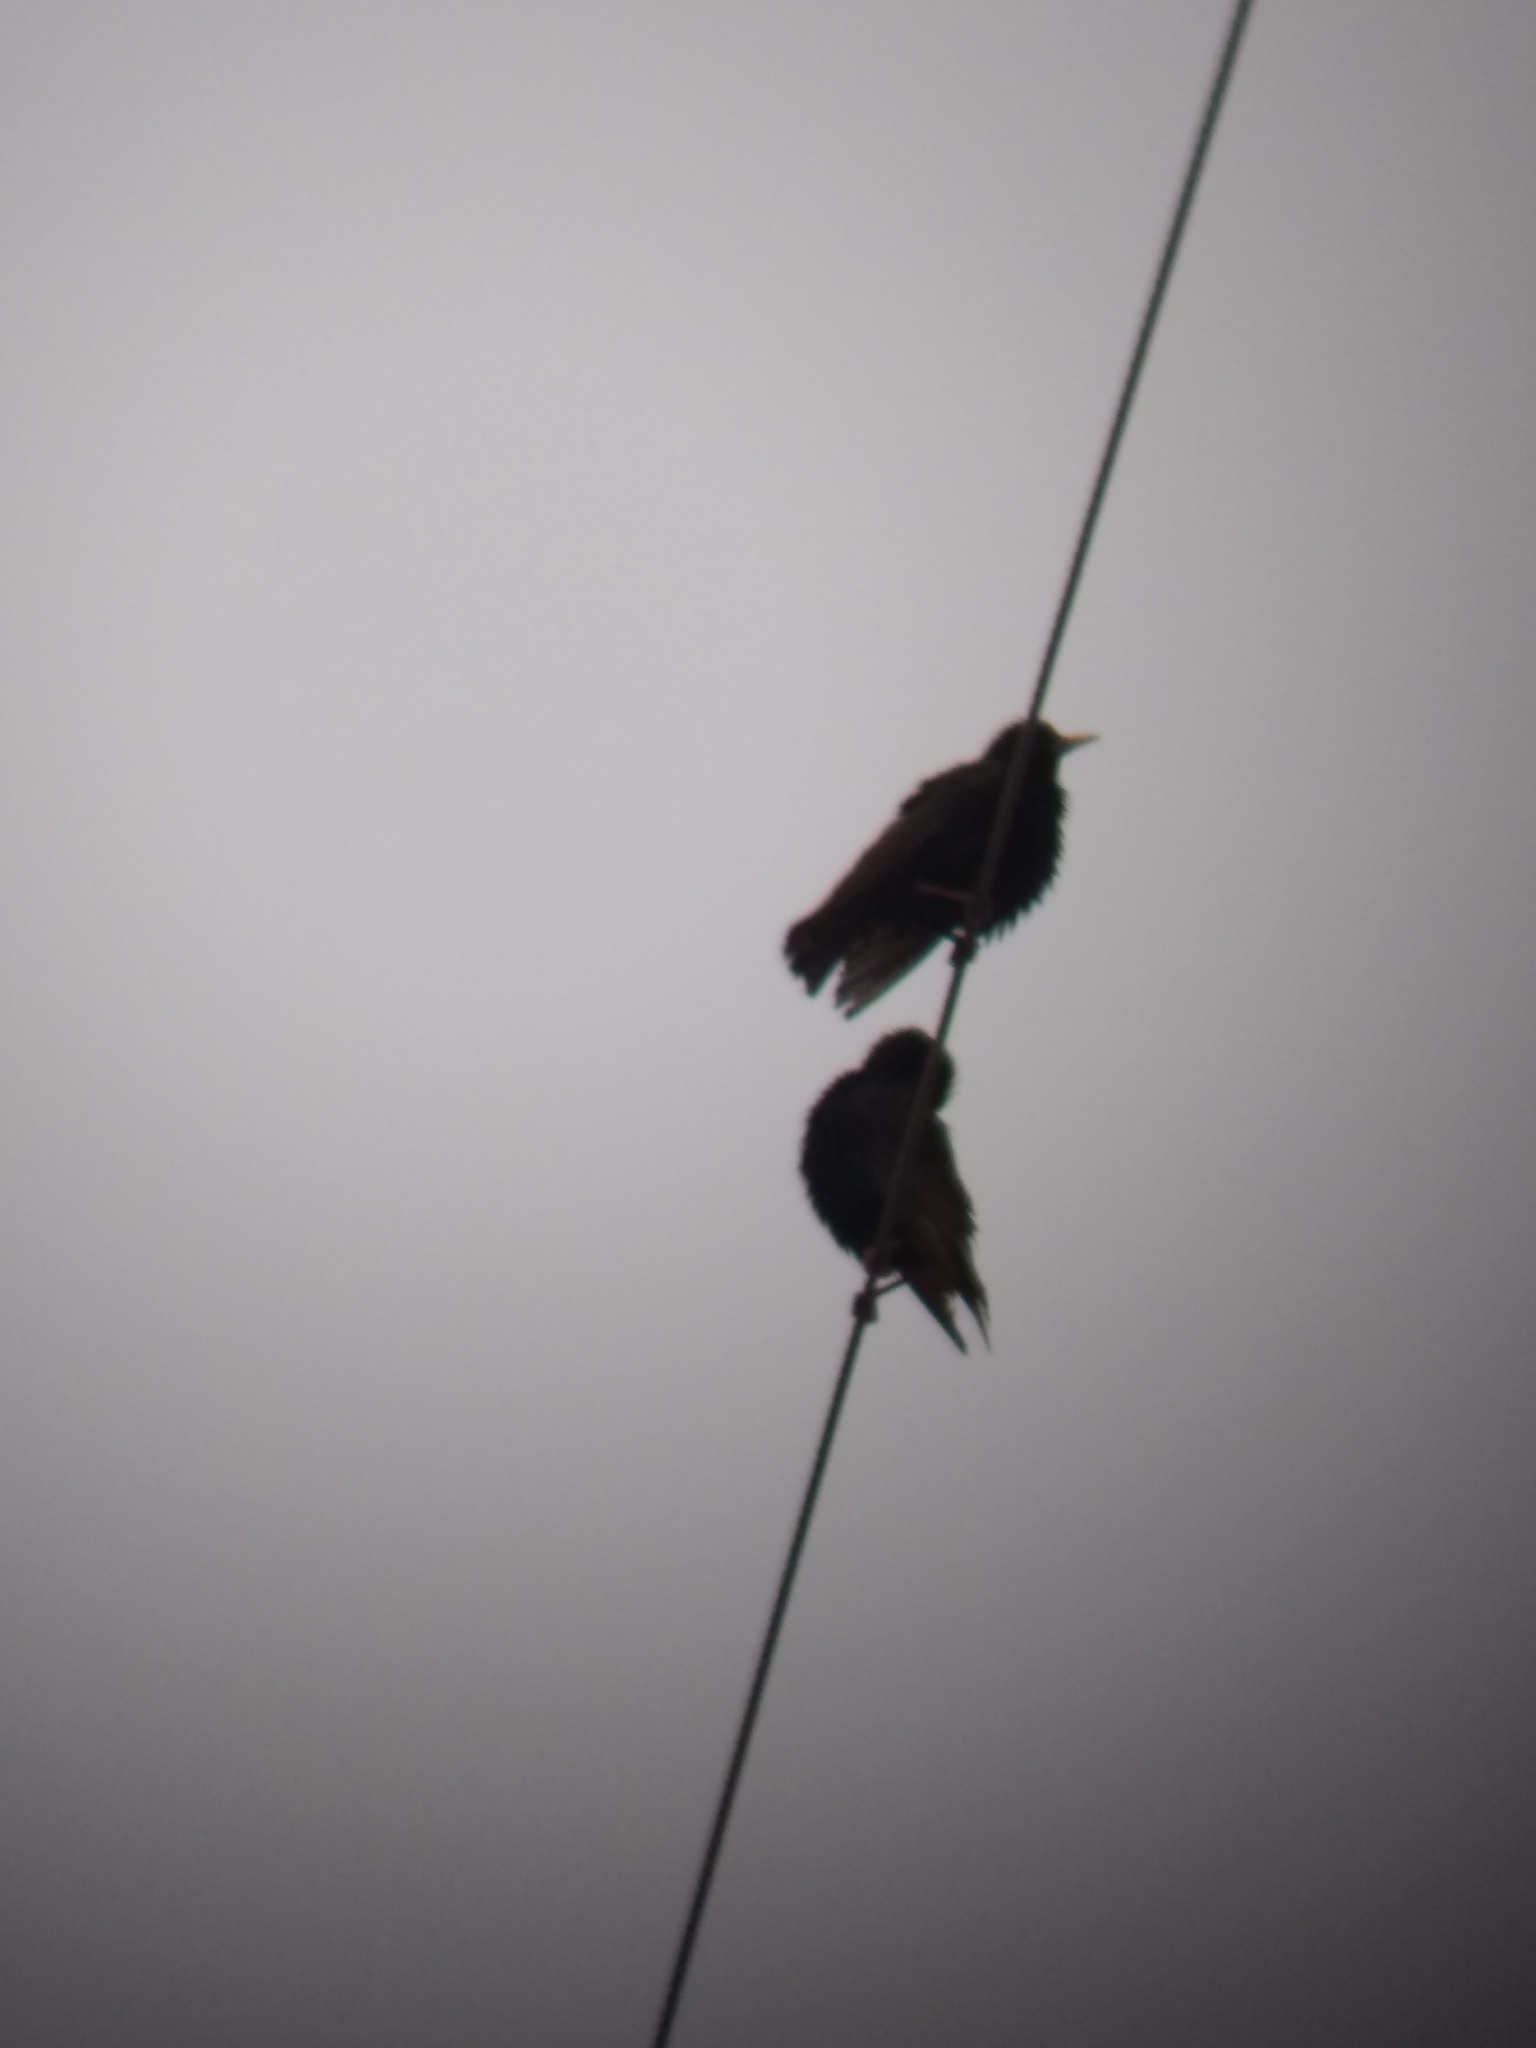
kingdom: Animalia
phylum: Chordata
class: Aves
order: Passeriformes
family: Sturnidae
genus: Sturnus
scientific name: Sturnus vulgaris
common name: Common starling
